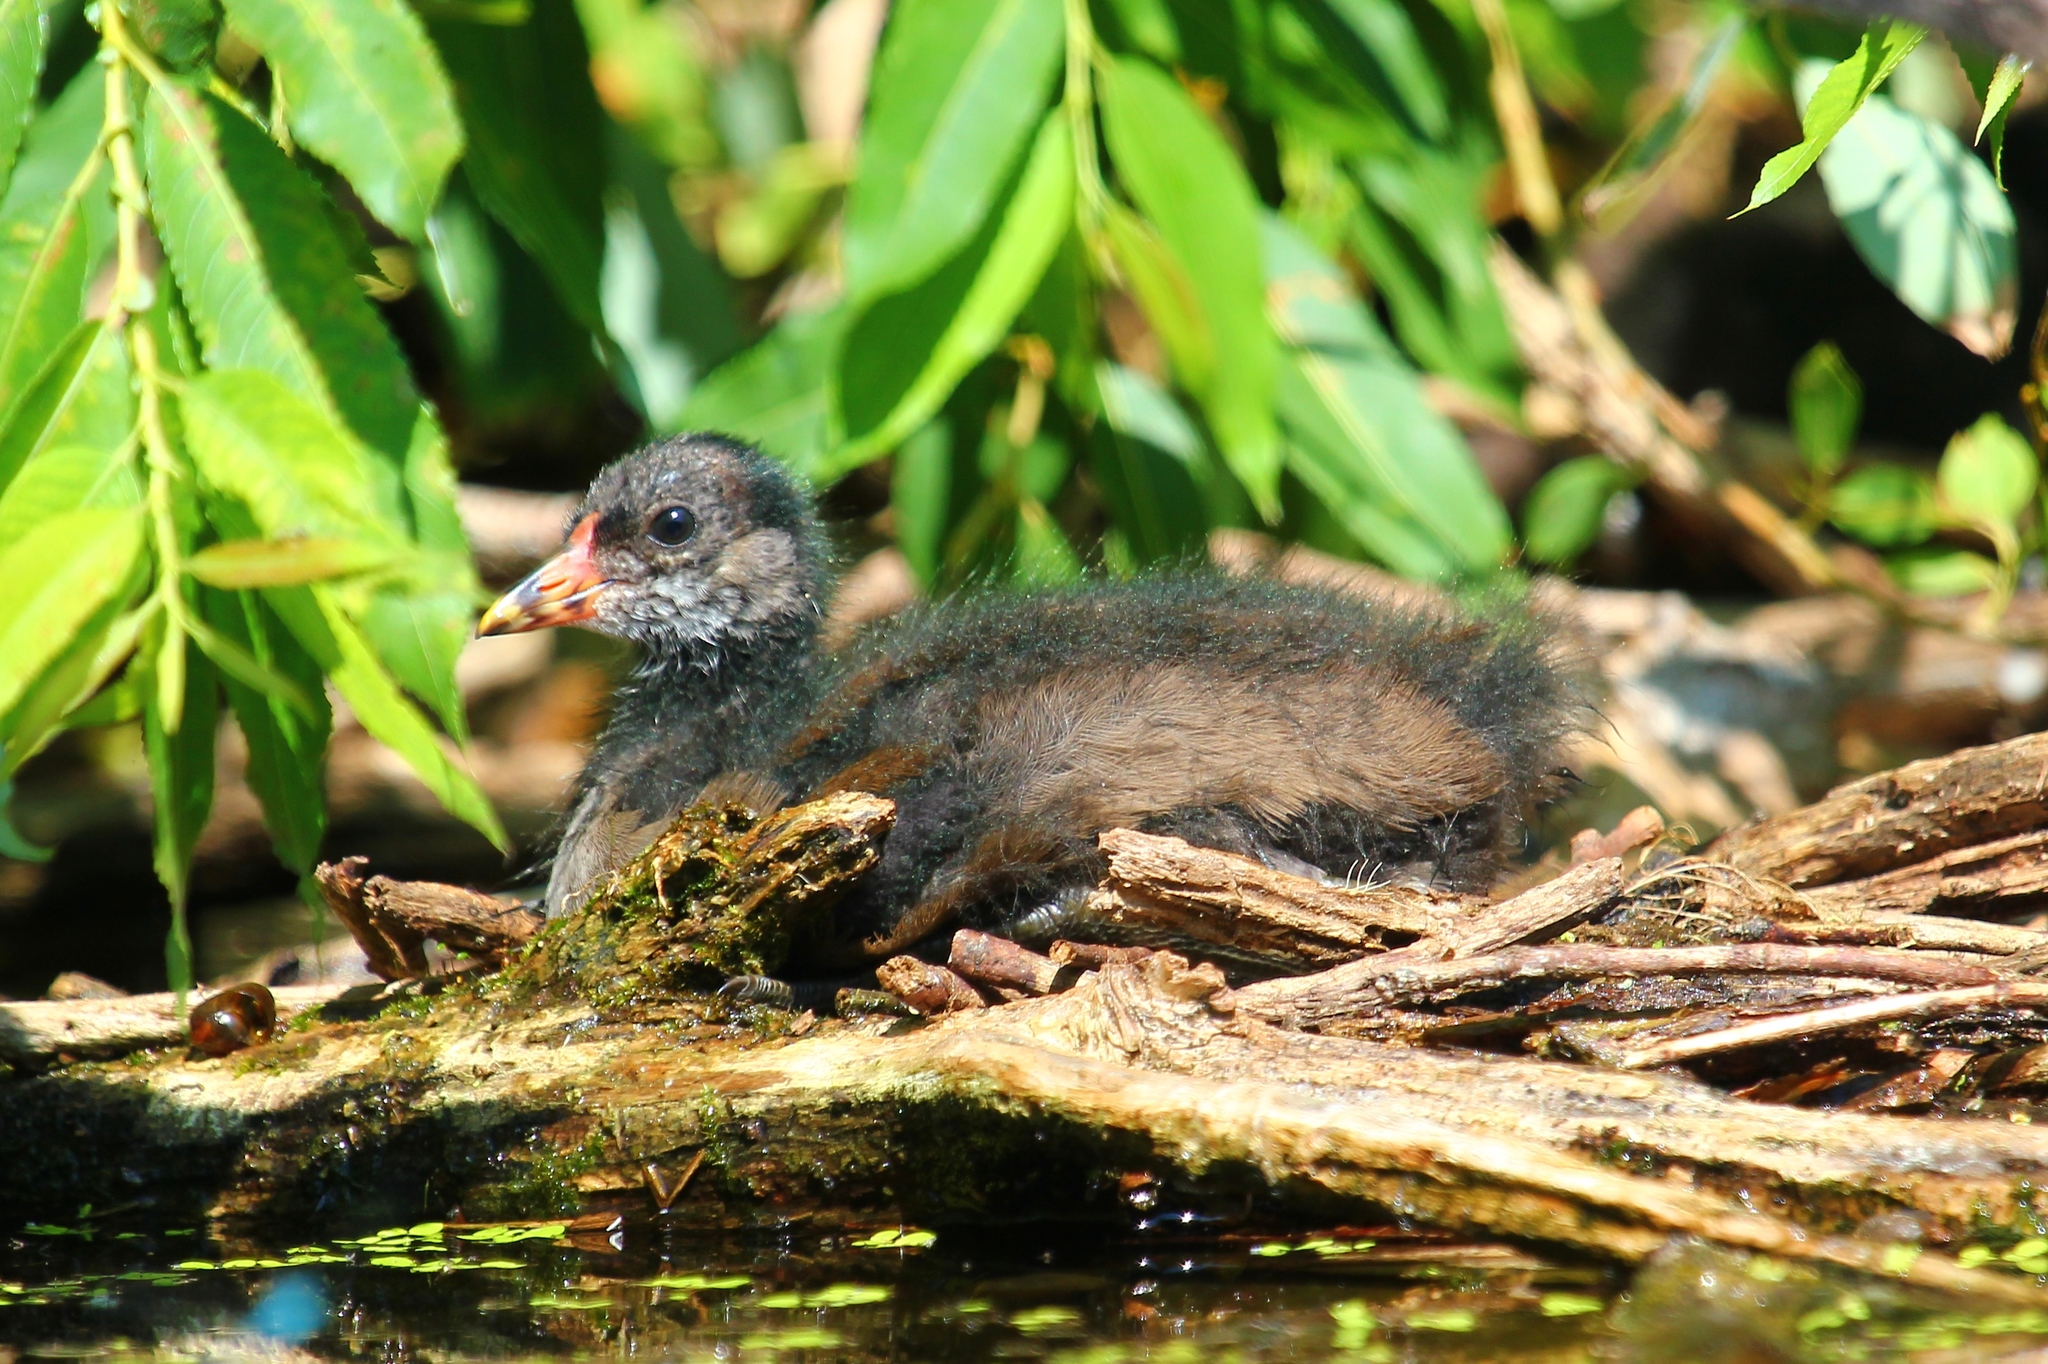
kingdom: Animalia
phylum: Chordata
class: Aves
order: Gruiformes
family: Rallidae
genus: Gallinula
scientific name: Gallinula chloropus
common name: Common moorhen
